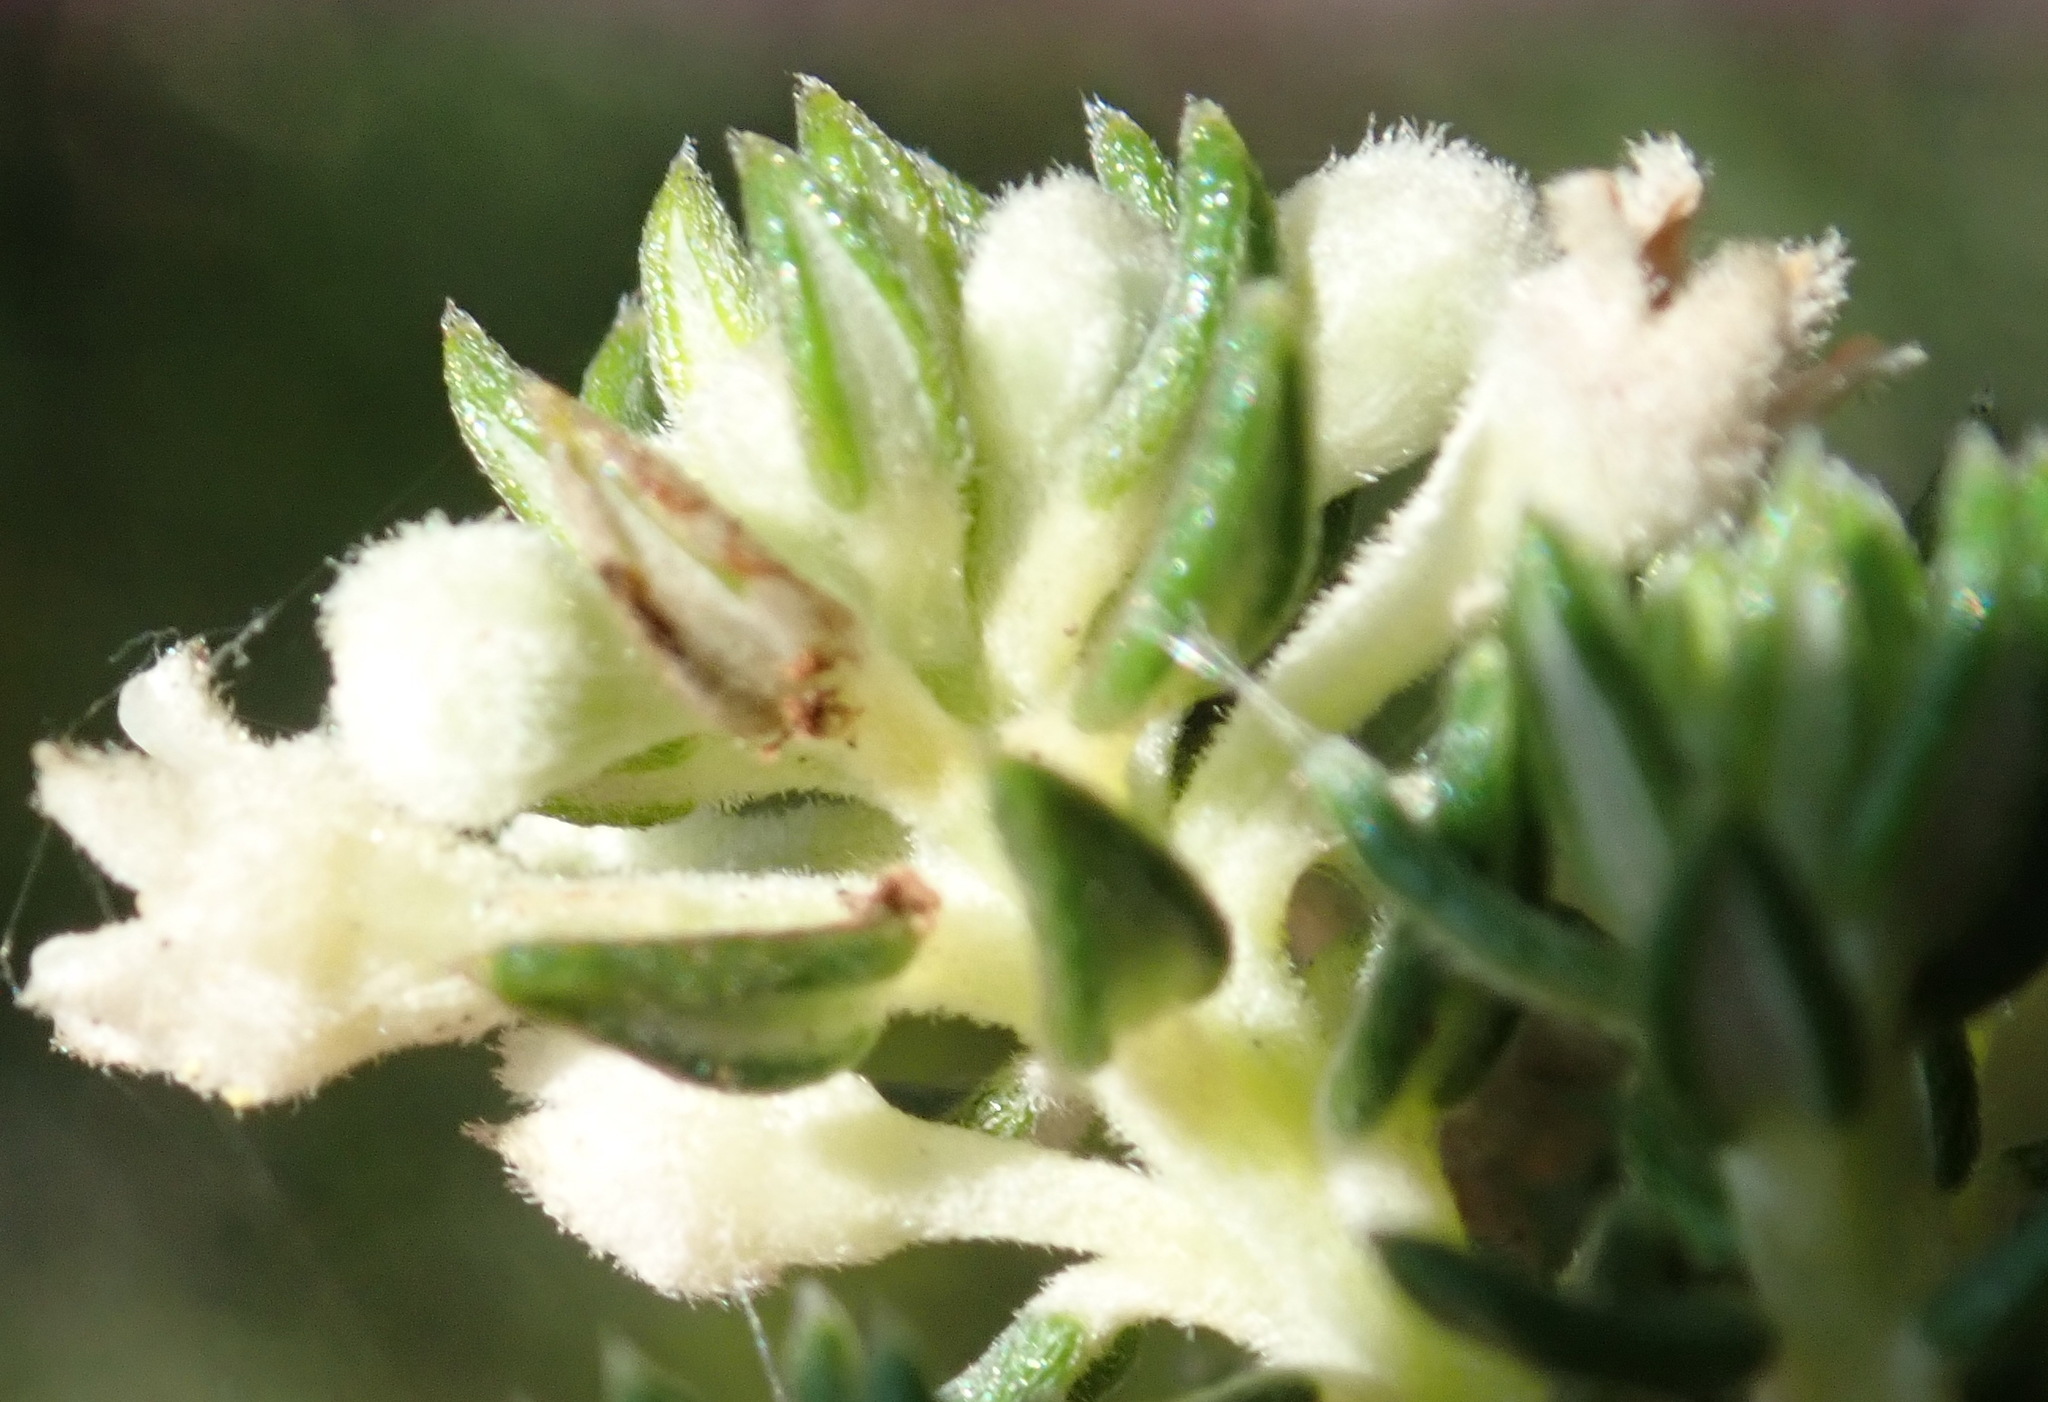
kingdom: Plantae
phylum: Tracheophyta
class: Magnoliopsida
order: Rosales
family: Rhamnaceae
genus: Phylica
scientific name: Phylica axillaris
